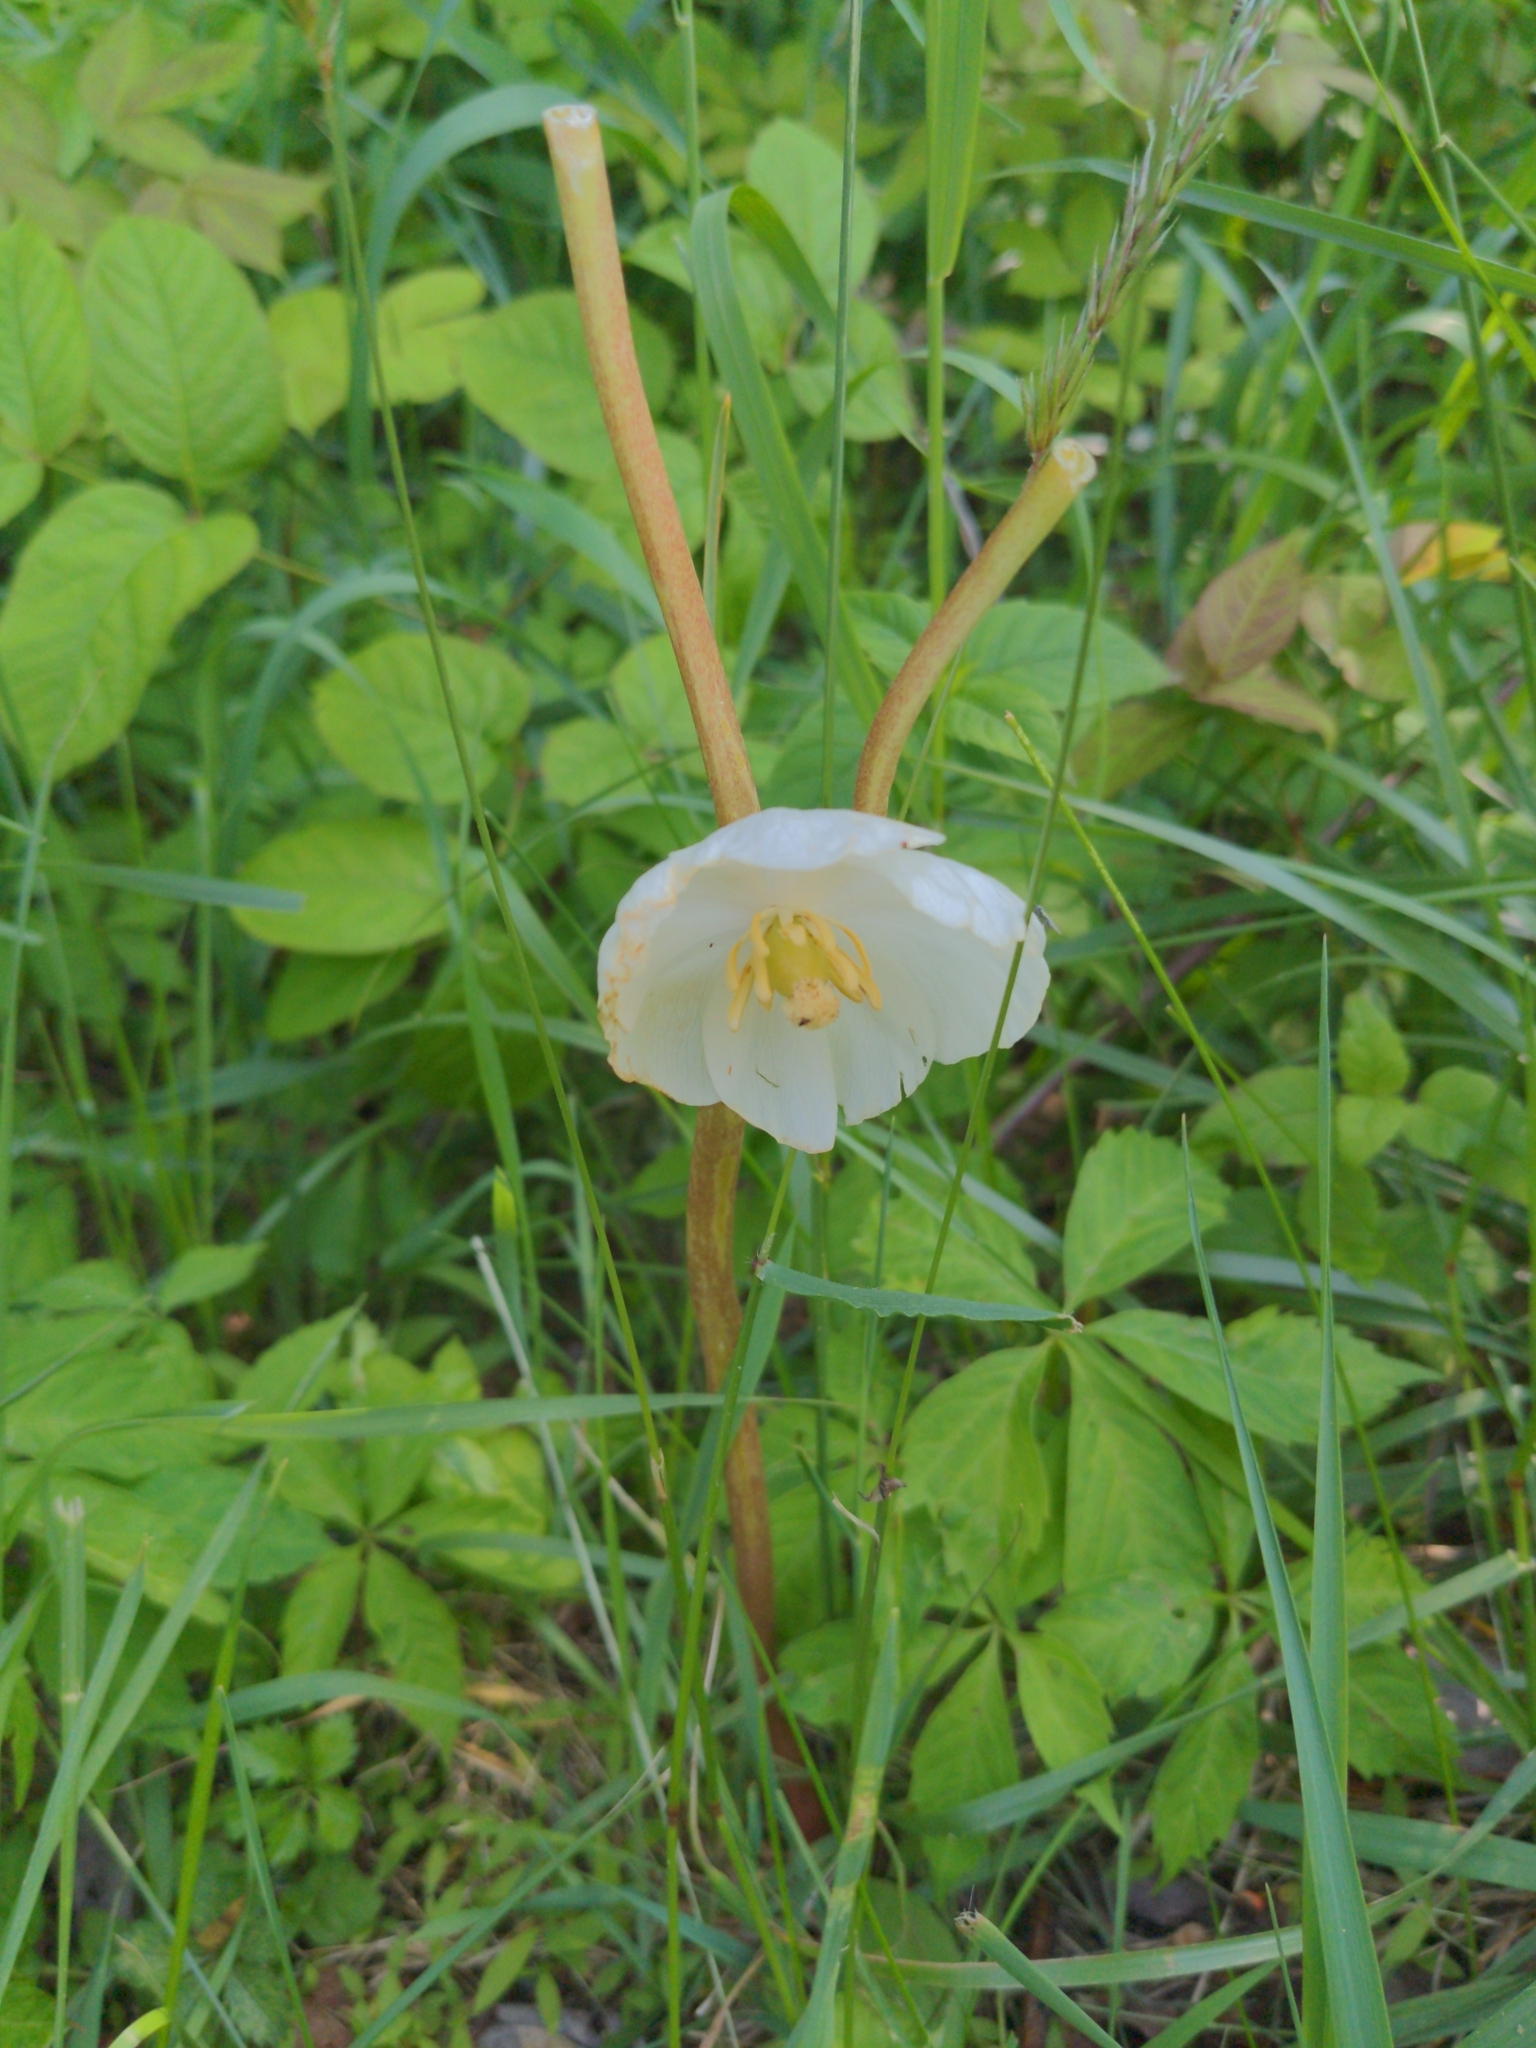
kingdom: Plantae
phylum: Tracheophyta
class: Magnoliopsida
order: Ranunculales
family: Berberidaceae
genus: Podophyllum
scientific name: Podophyllum peltatum
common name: Wild mandrake
